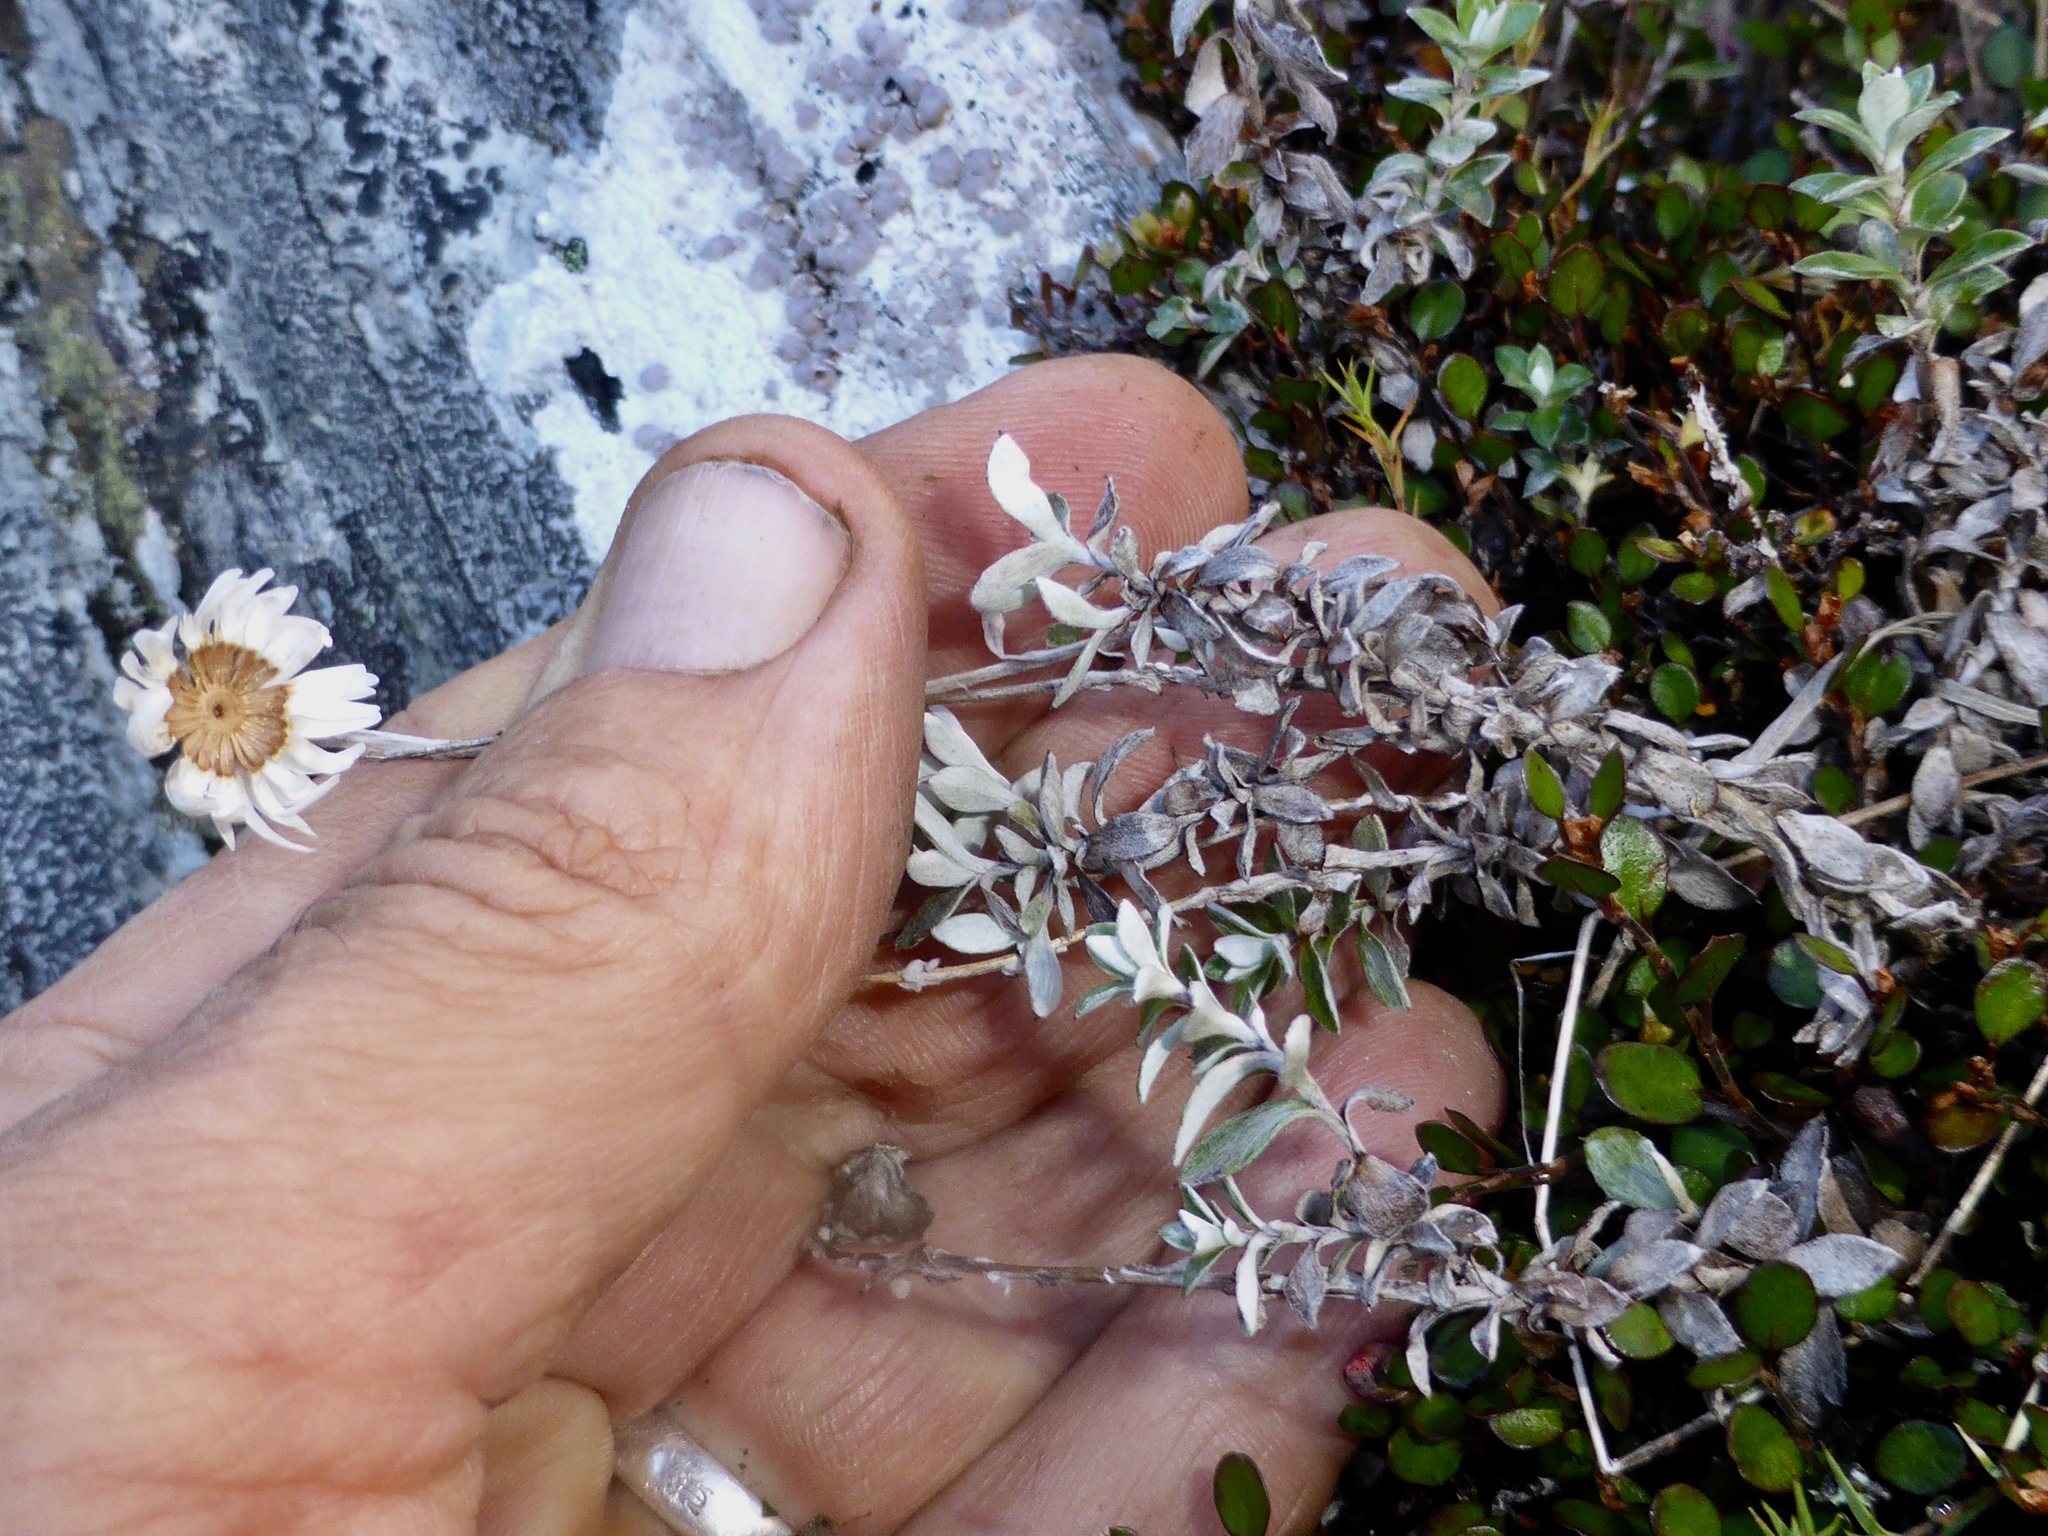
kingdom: Plantae
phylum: Tracheophyta
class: Magnoliopsida
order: Asterales
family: Asteraceae
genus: Anaphalioides
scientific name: Anaphalioides bellidioides
